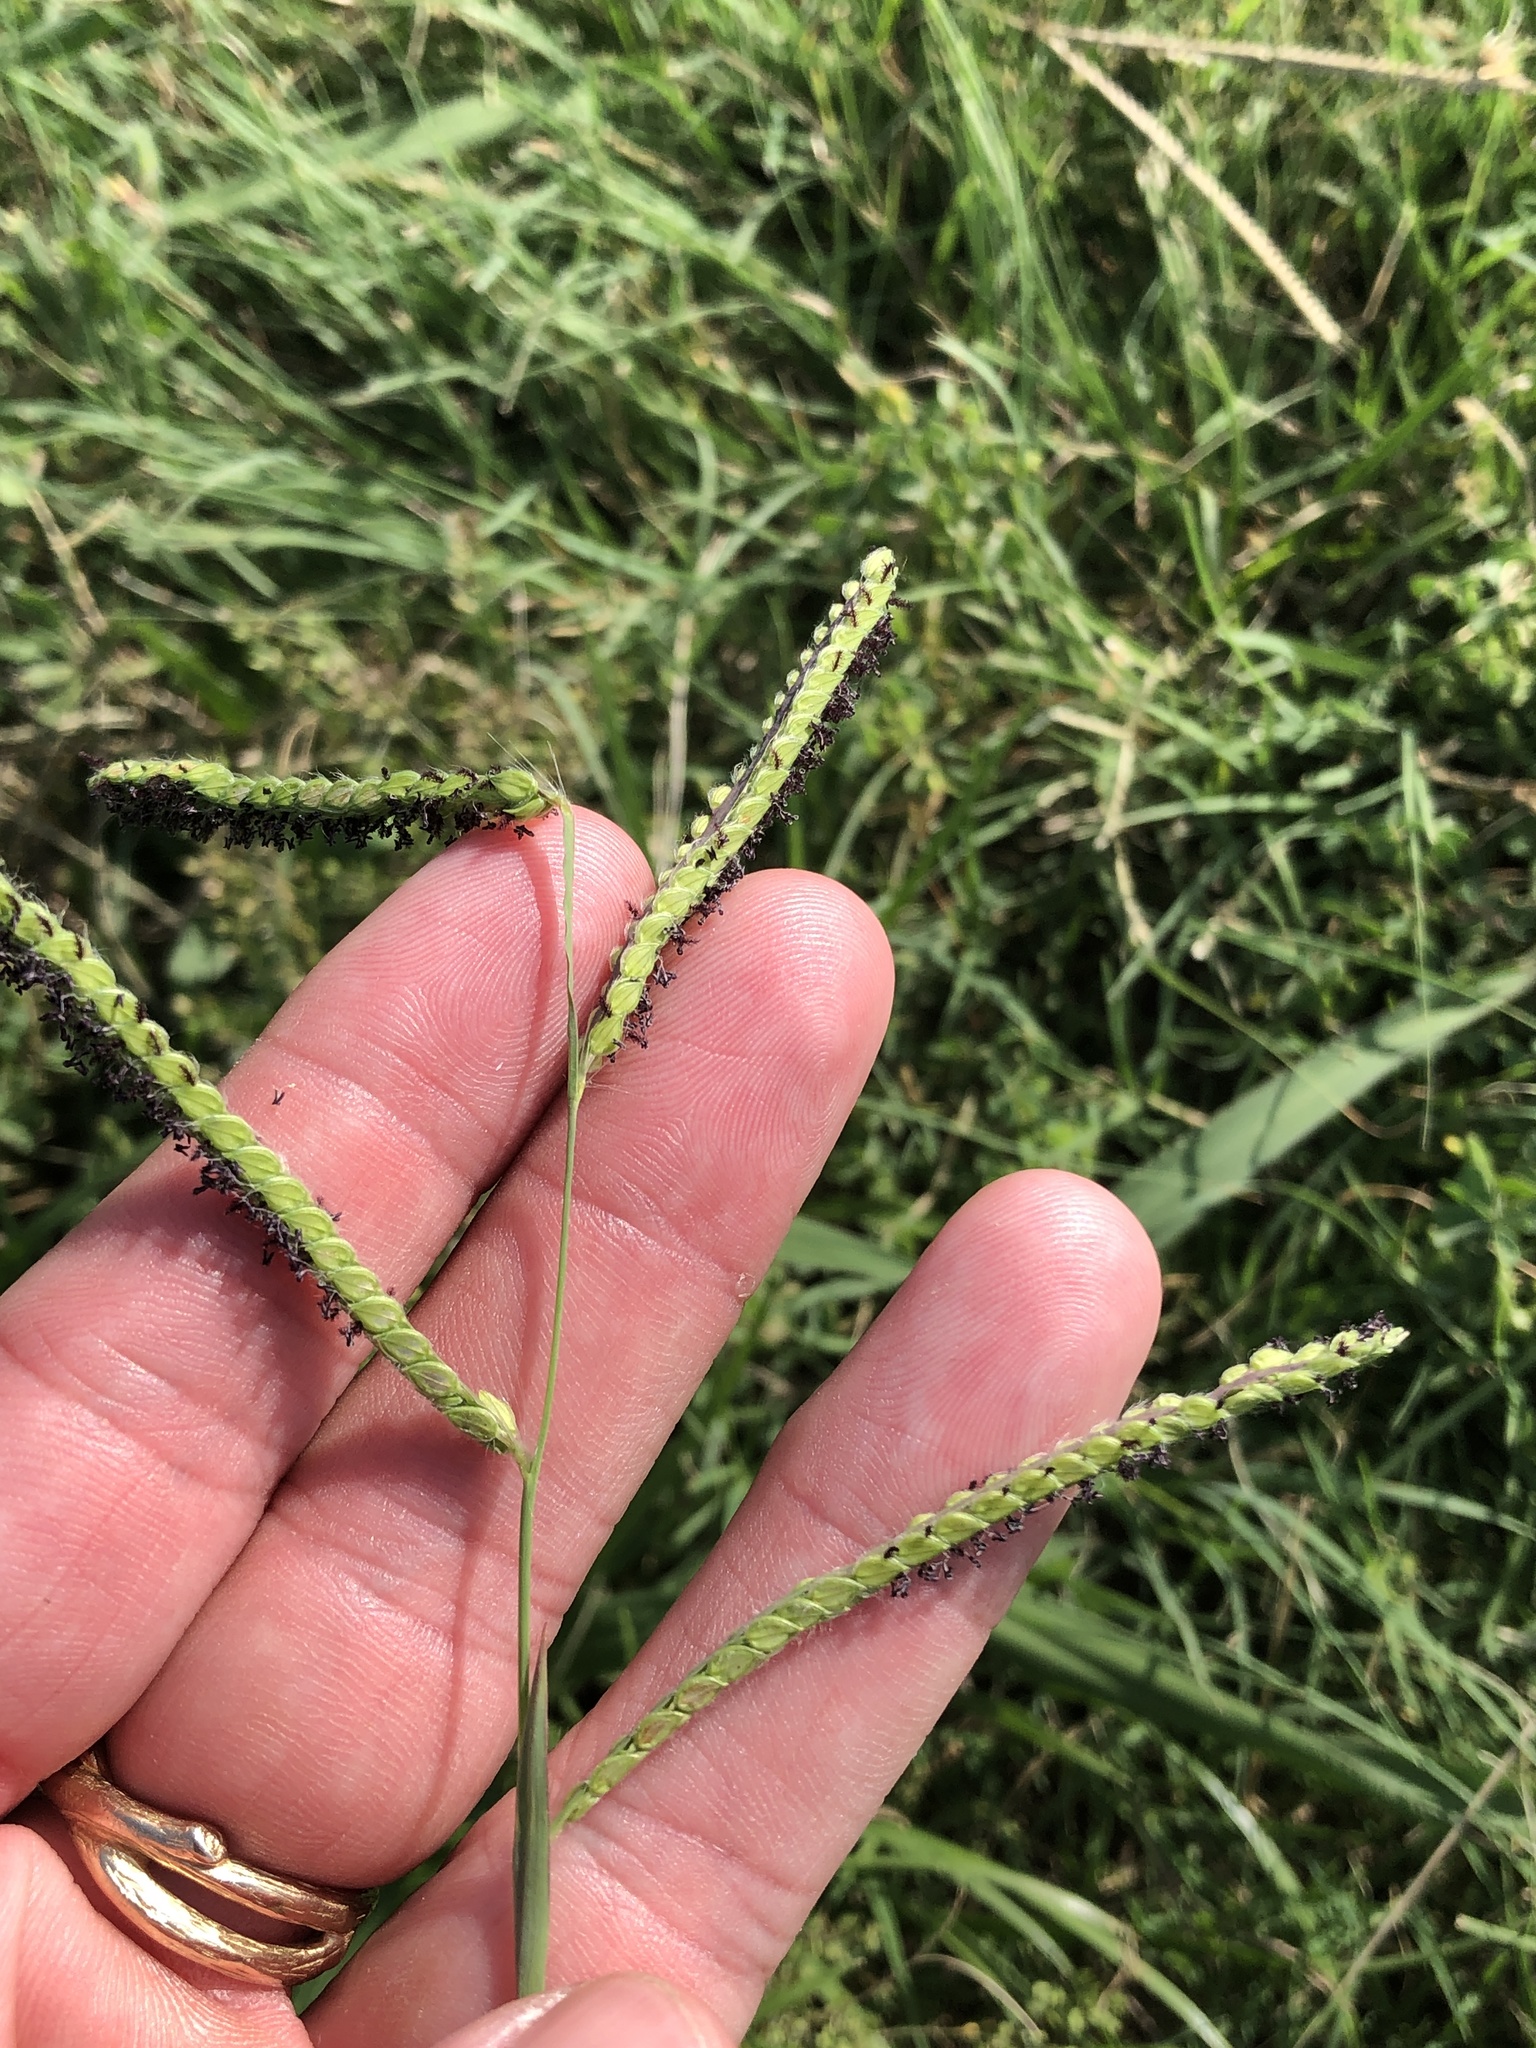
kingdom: Plantae
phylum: Tracheophyta
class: Liliopsida
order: Poales
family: Poaceae
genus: Paspalum
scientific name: Paspalum dilatatum
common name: Dallisgrass
